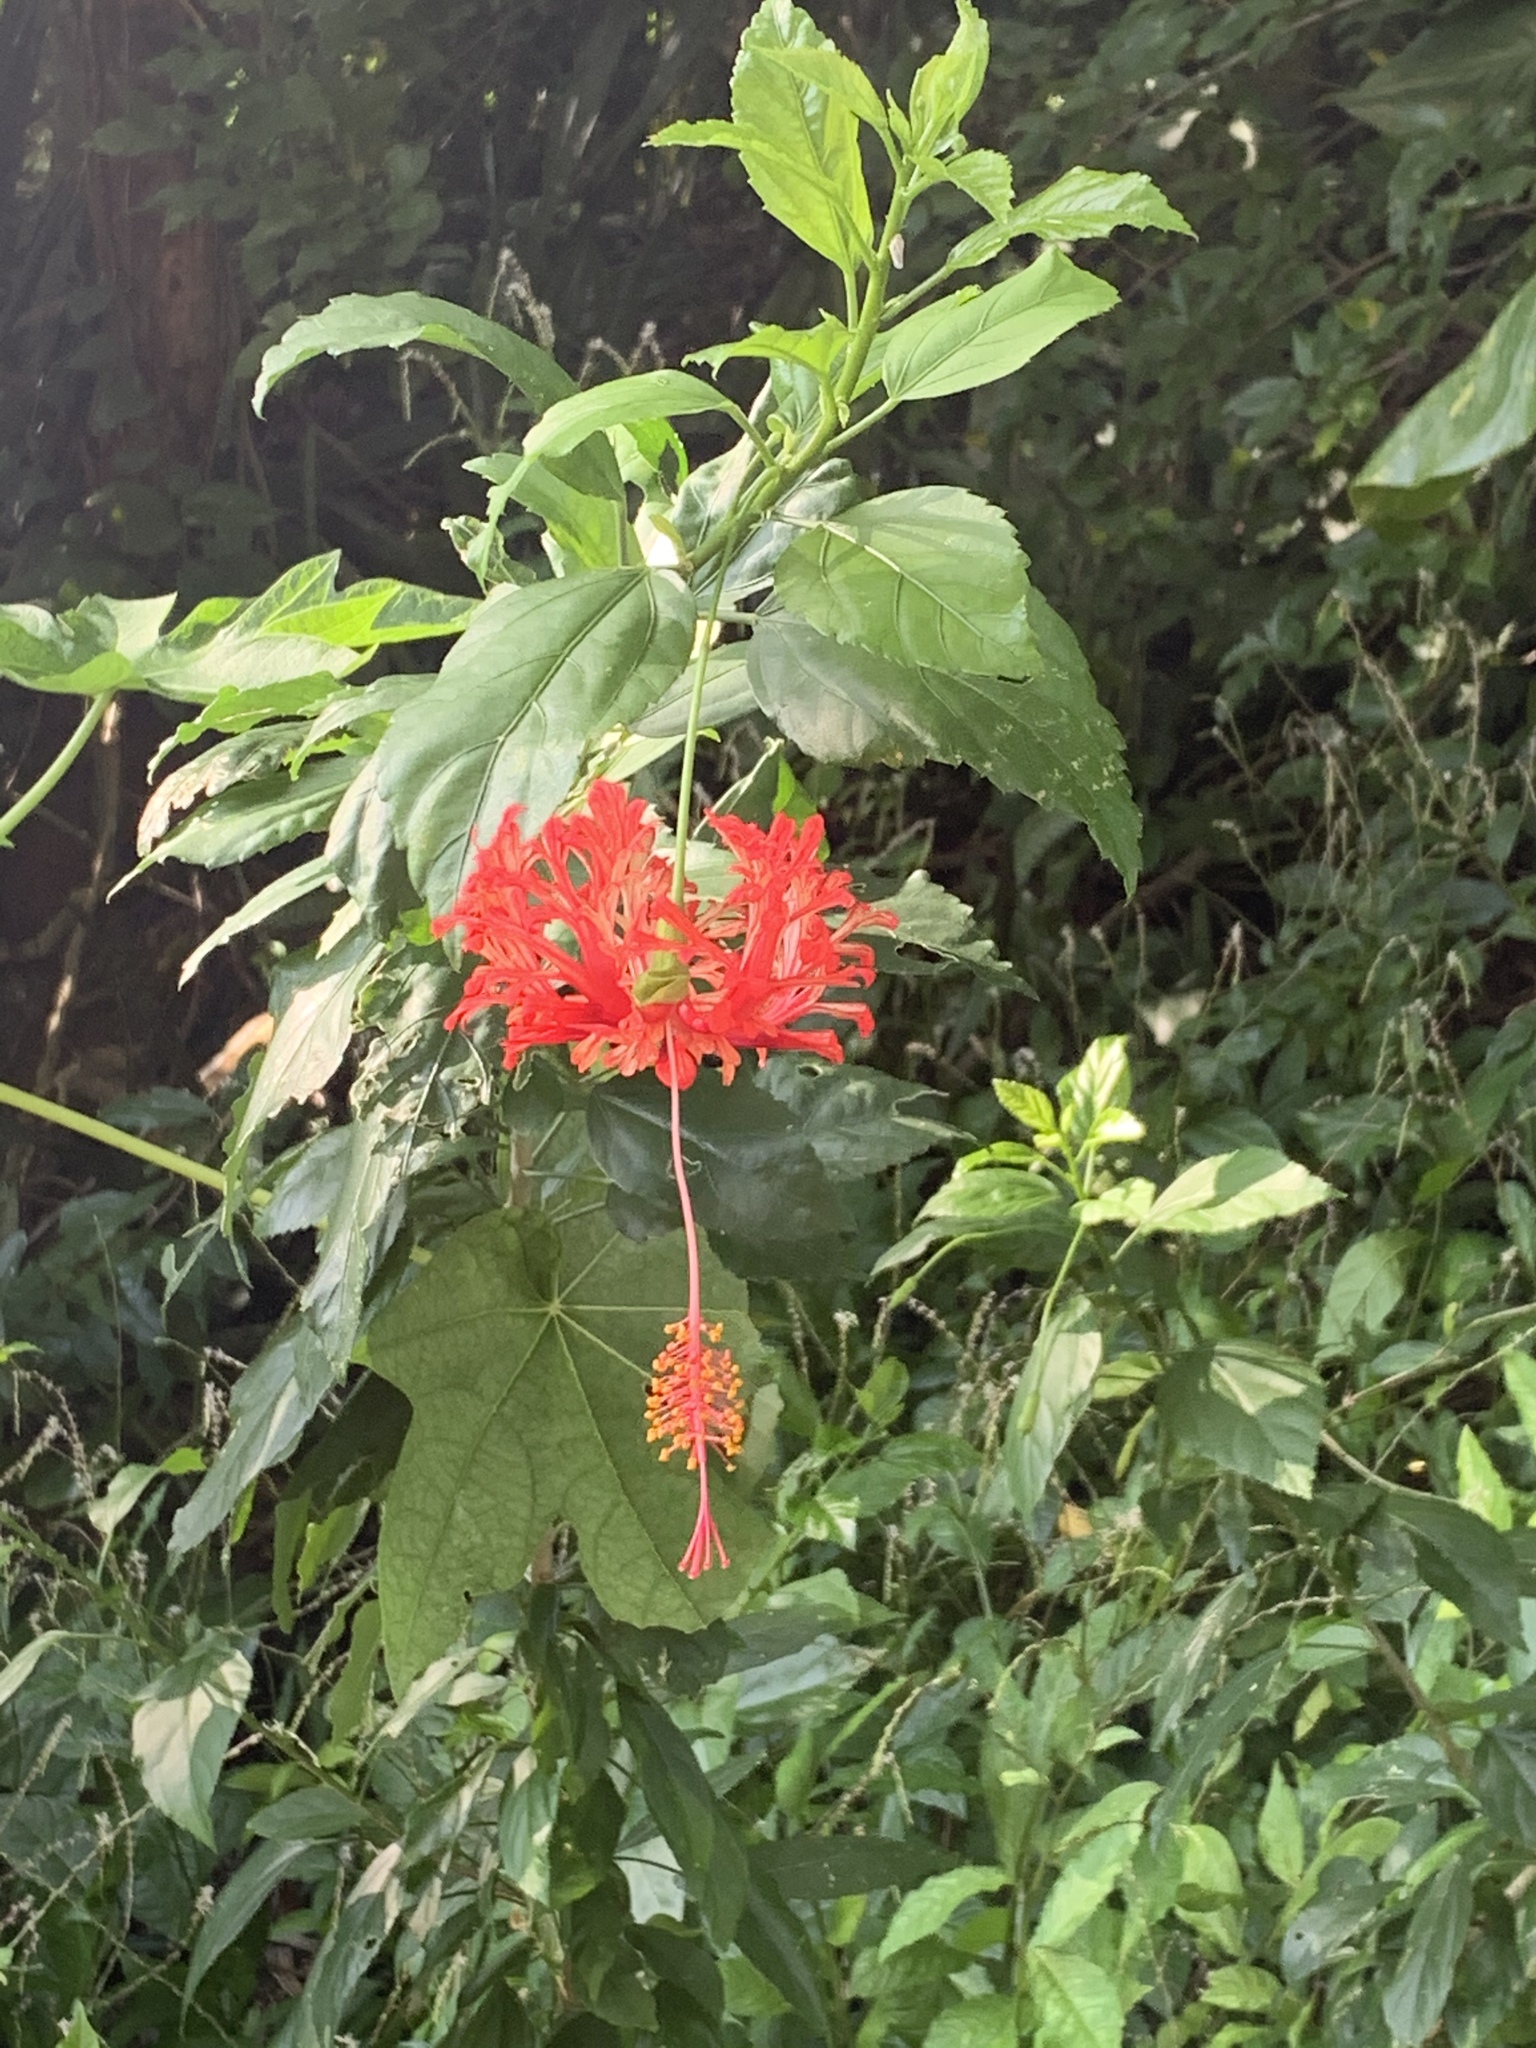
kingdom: Plantae
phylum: Tracheophyta
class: Magnoliopsida
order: Malvales
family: Malvaceae
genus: Hibiscus
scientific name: Hibiscus schizopetalus
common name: Fringed rosemallow
